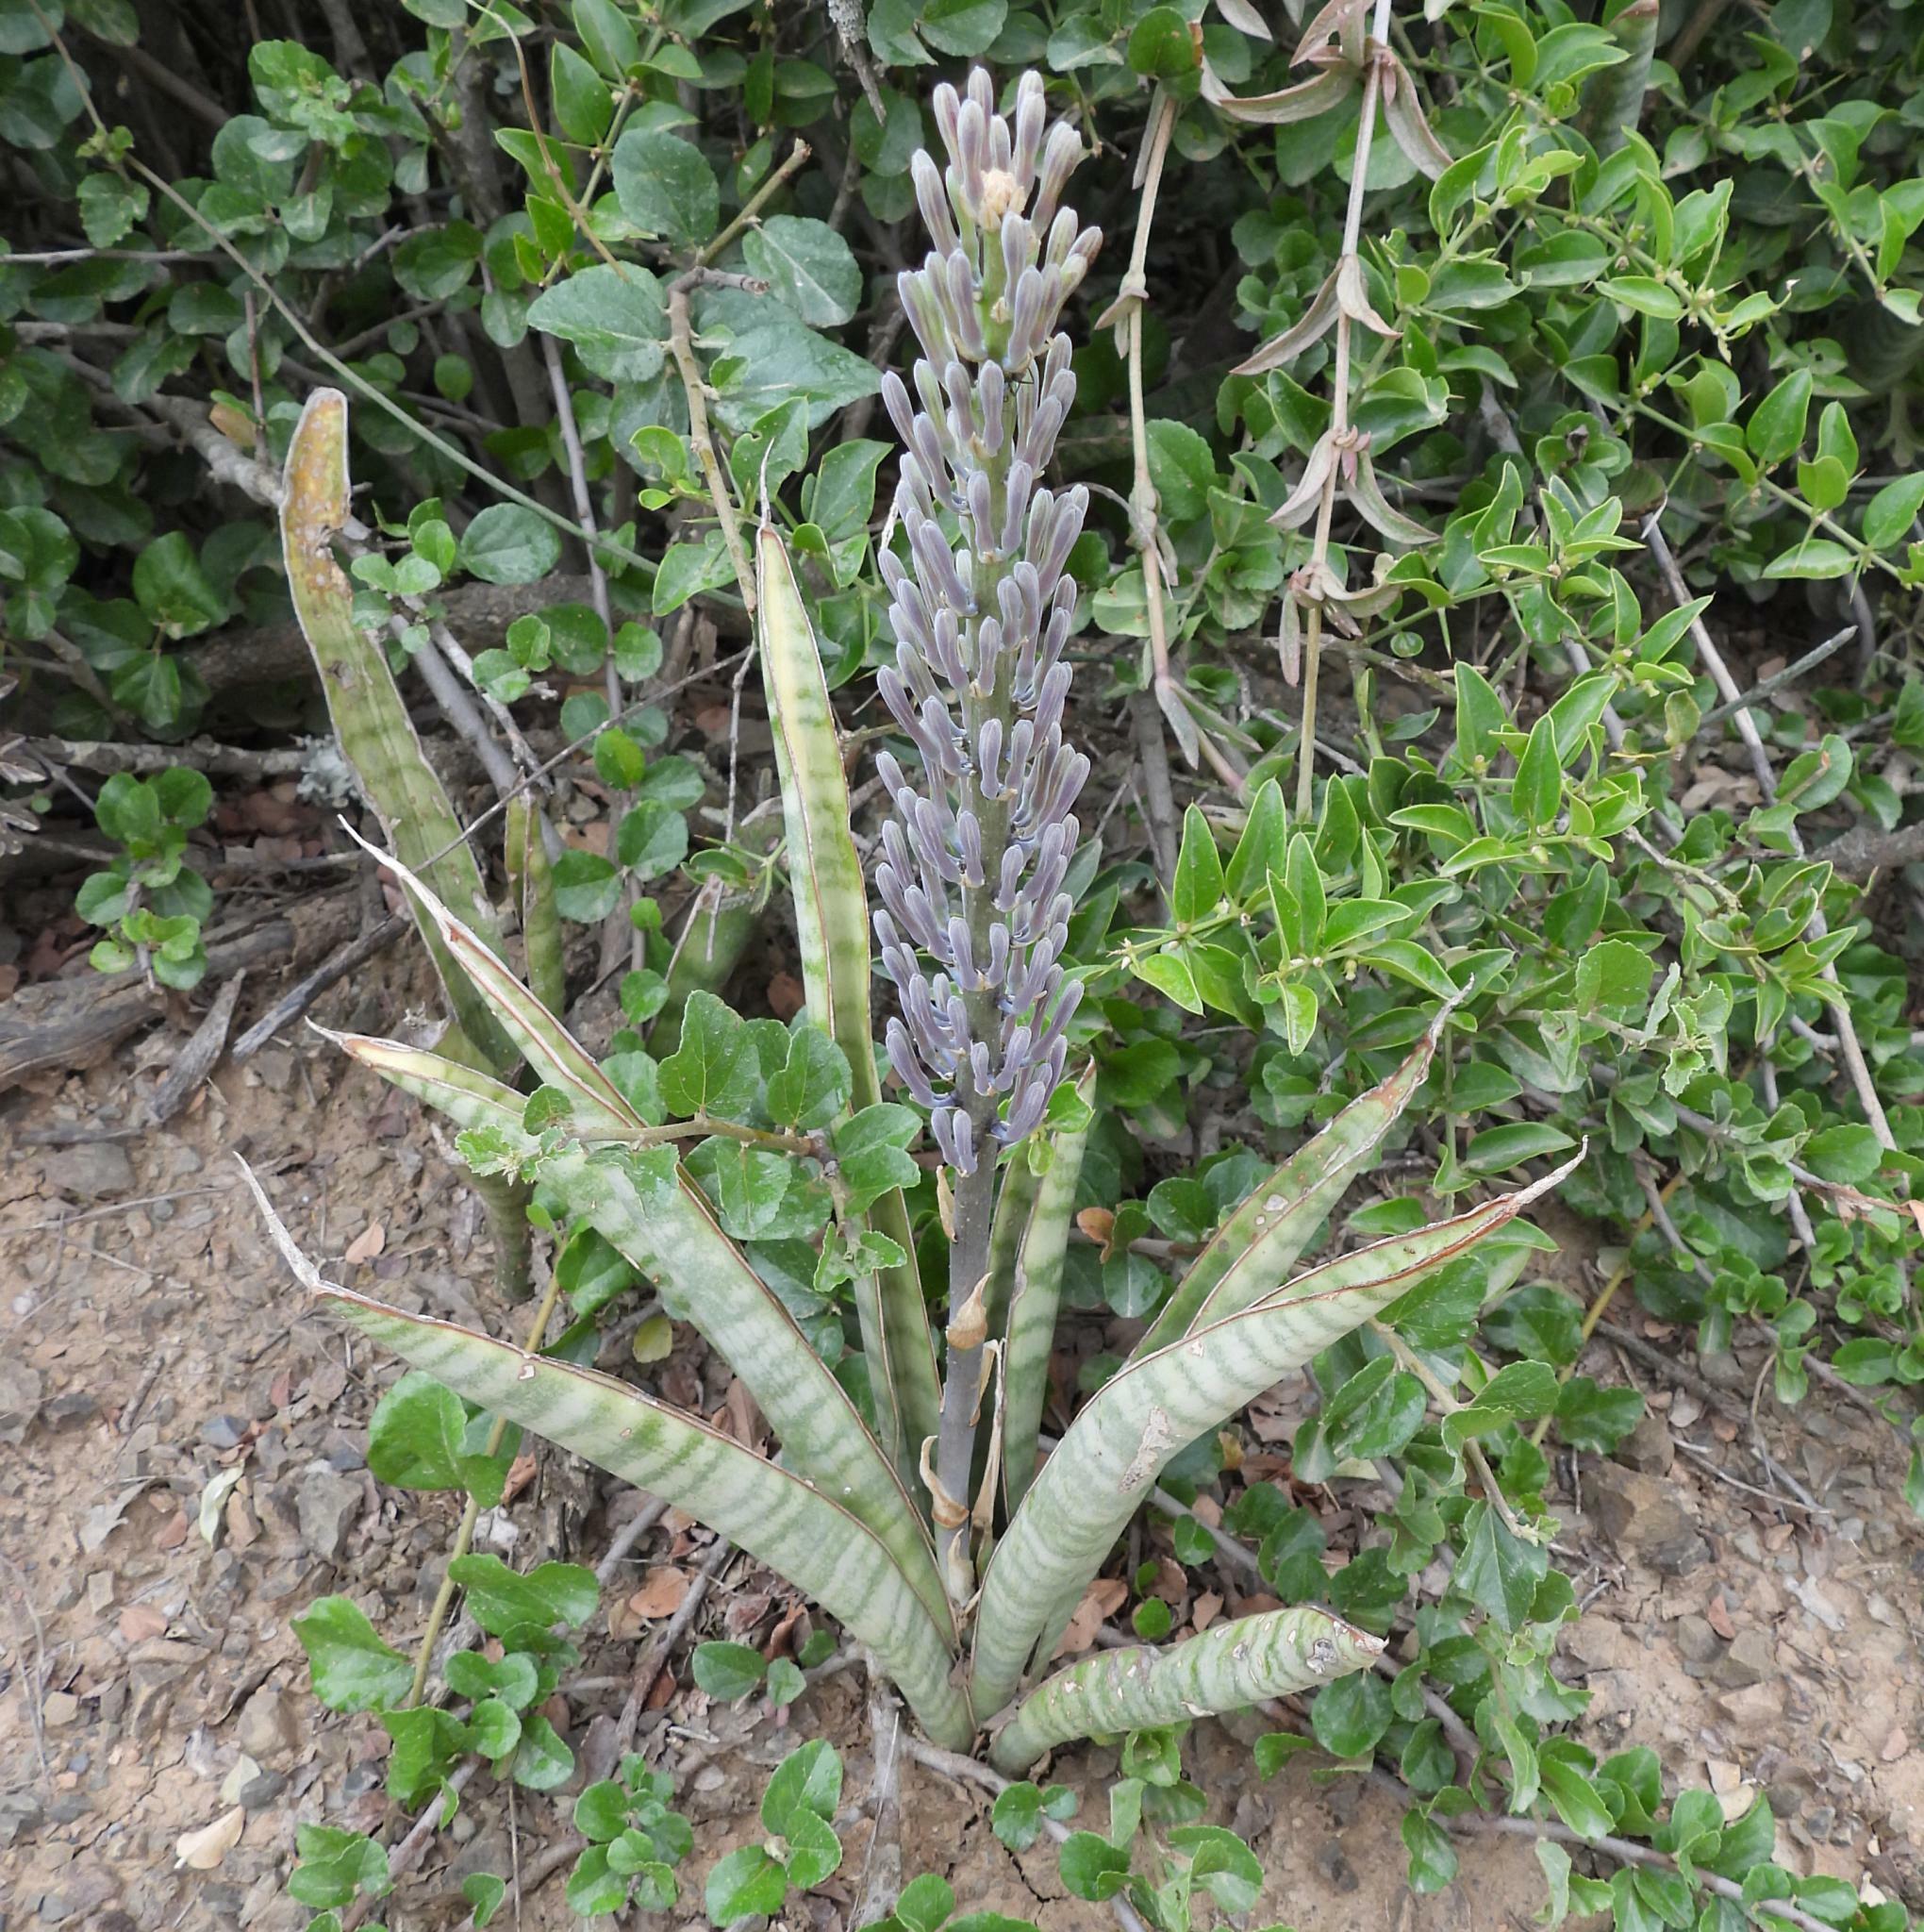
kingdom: Plantae
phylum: Tracheophyta
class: Liliopsida
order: Asparagales
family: Asparagaceae
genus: Dracaena
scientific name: Dracaena aethiopica
